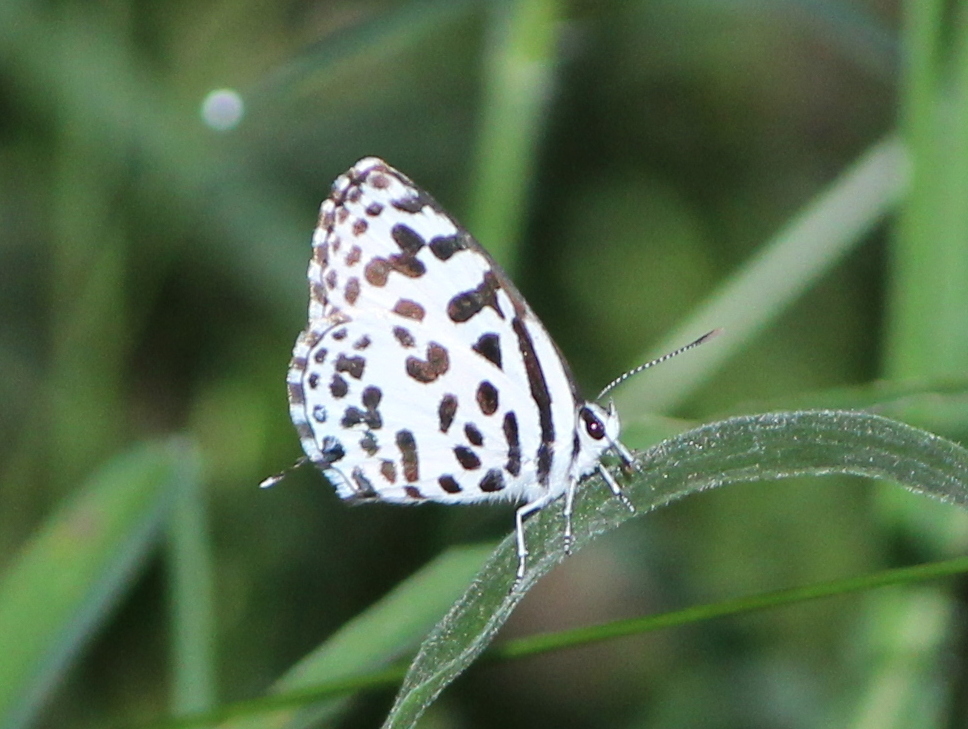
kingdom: Animalia
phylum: Arthropoda
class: Insecta
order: Lepidoptera
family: Lycaenidae
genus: Castalius
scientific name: Castalius rosimon
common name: Common pierrot
